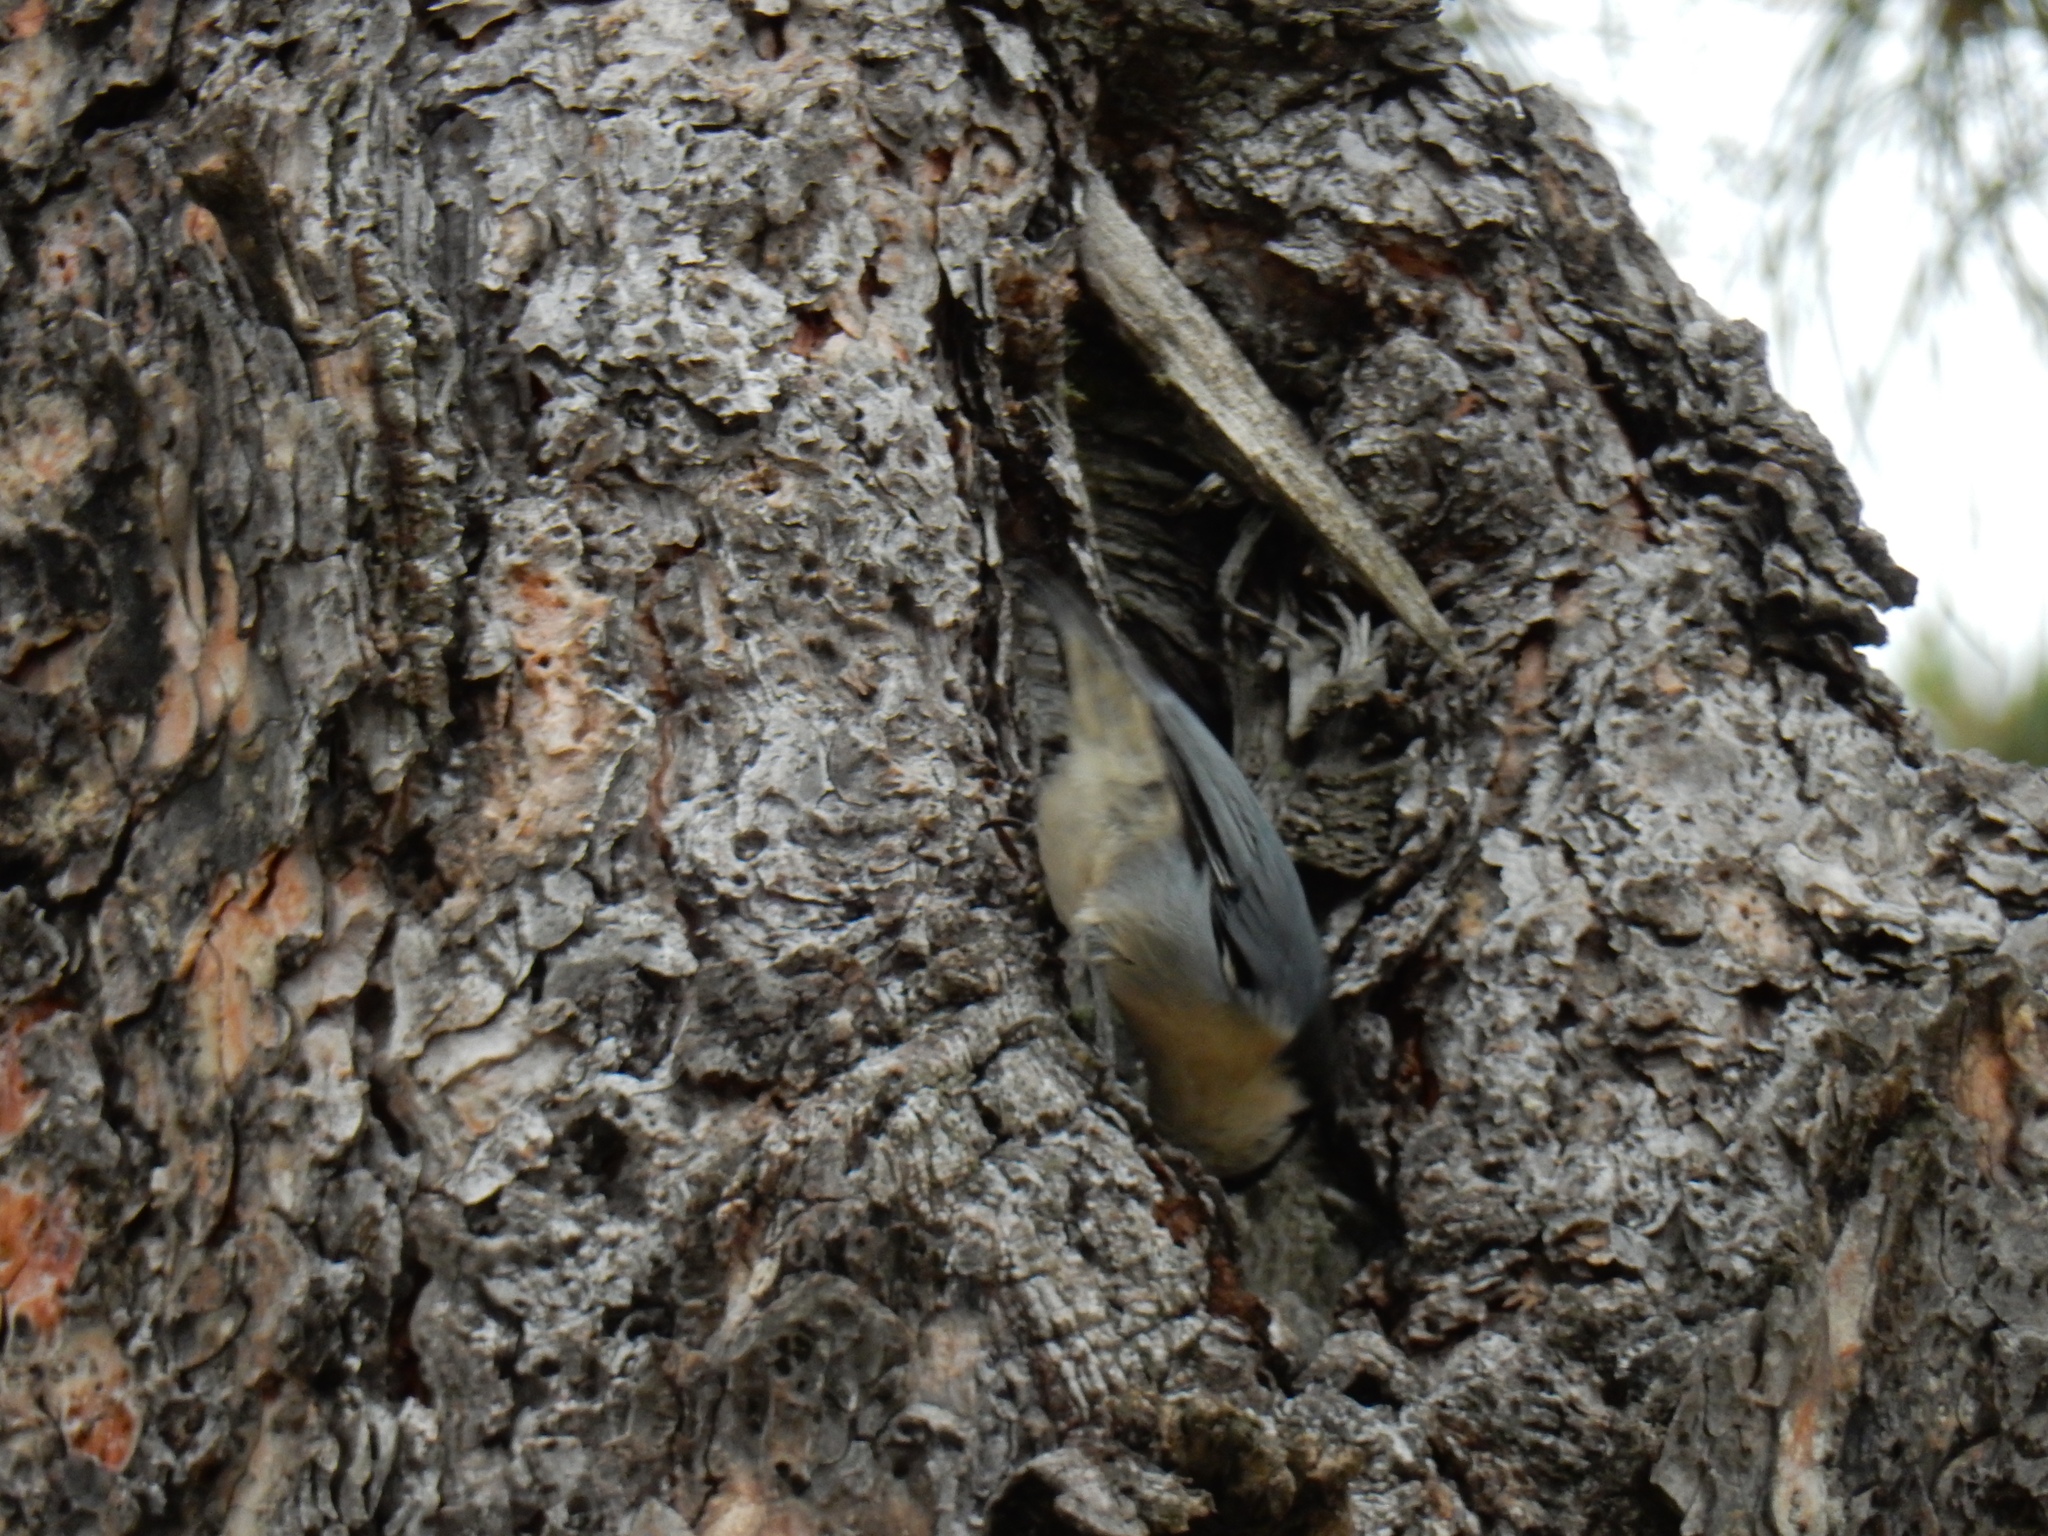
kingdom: Animalia
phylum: Chordata
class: Aves
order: Passeriformes
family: Sittidae
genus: Sitta
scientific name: Sitta pygmaea
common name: Pygmy nuthatch
